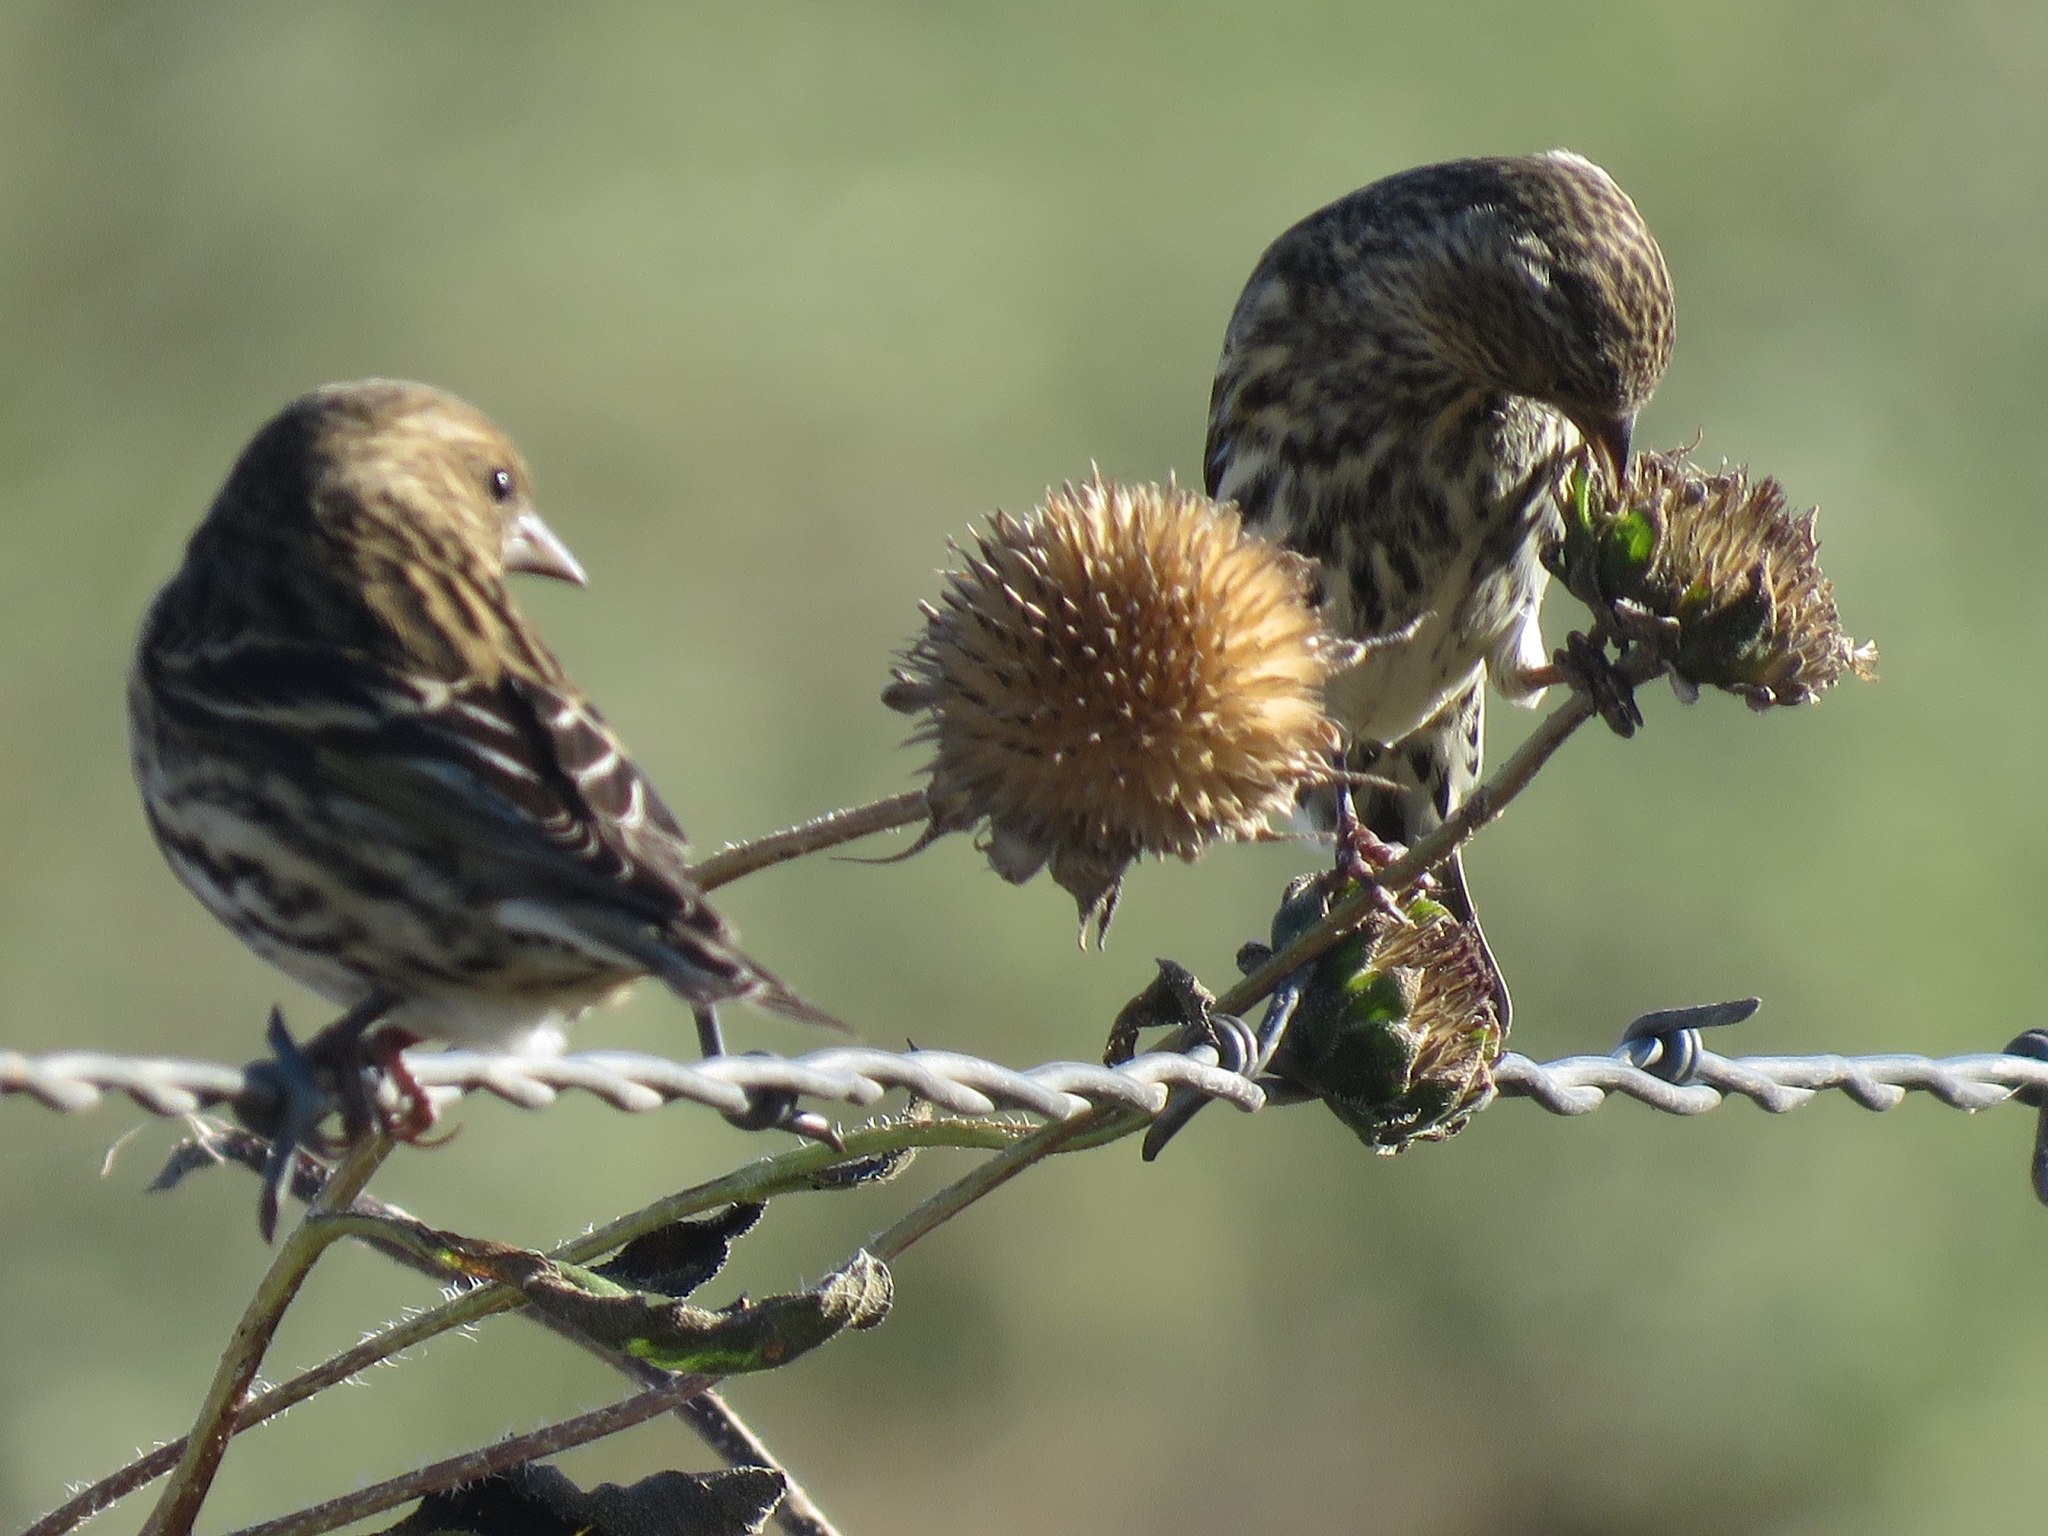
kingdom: Animalia
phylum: Chordata
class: Aves
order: Passeriformes
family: Fringillidae
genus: Spinus
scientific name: Spinus pinus
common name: Pine siskin
